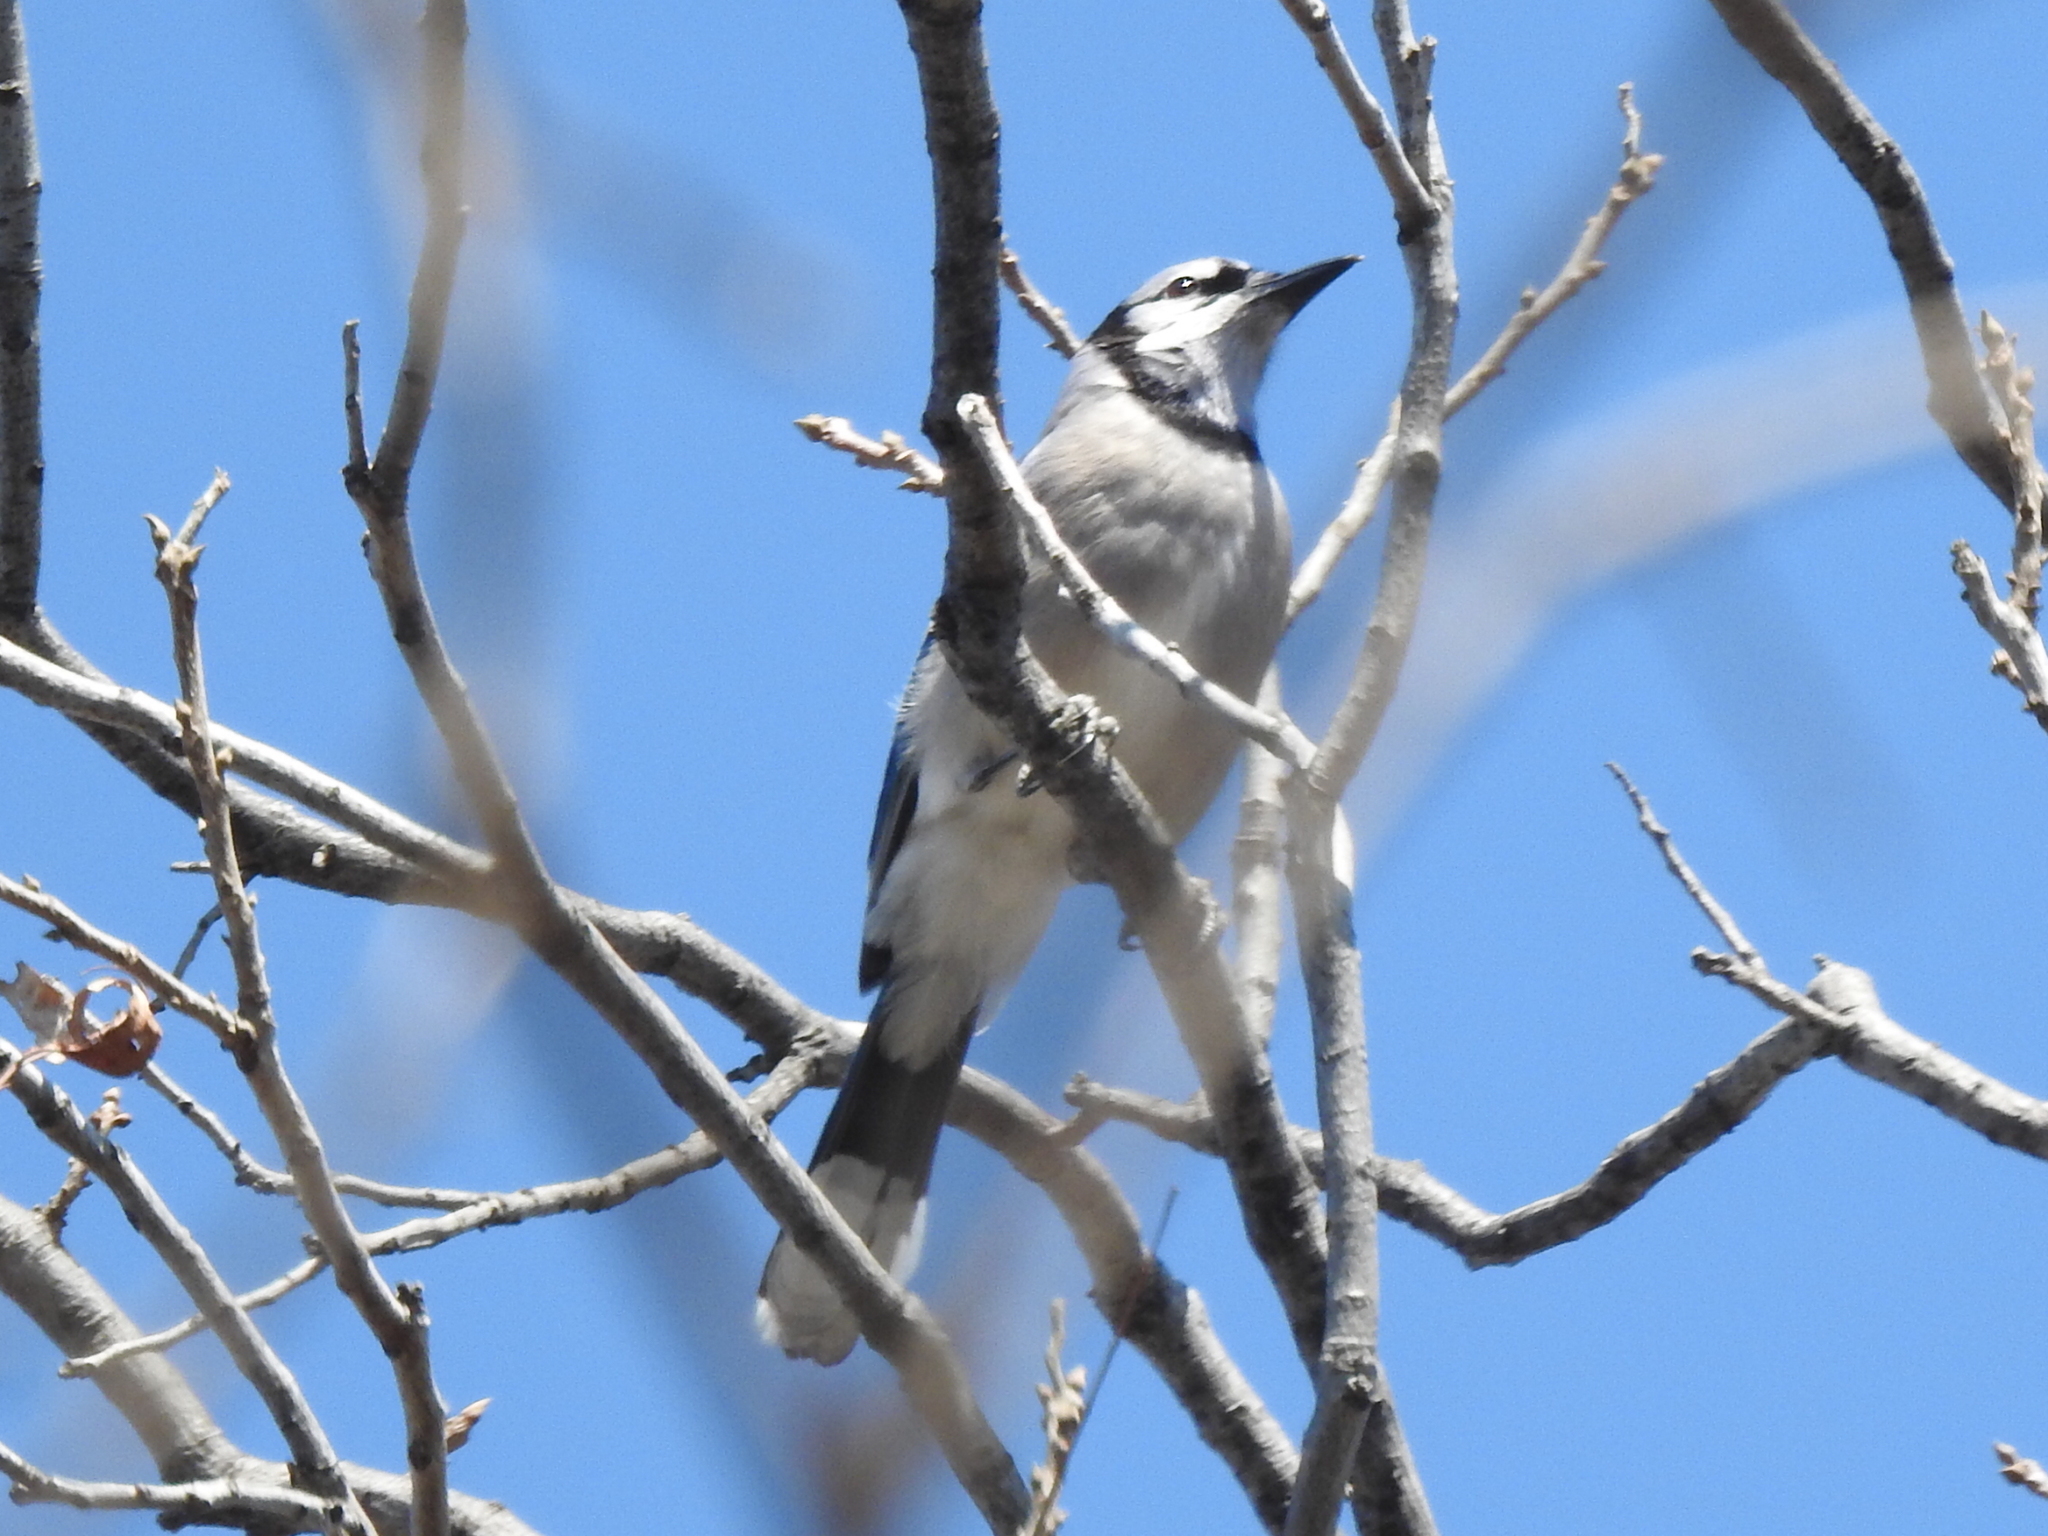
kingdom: Animalia
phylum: Chordata
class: Aves
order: Passeriformes
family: Corvidae
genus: Cyanocitta
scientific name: Cyanocitta cristata
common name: Blue jay
